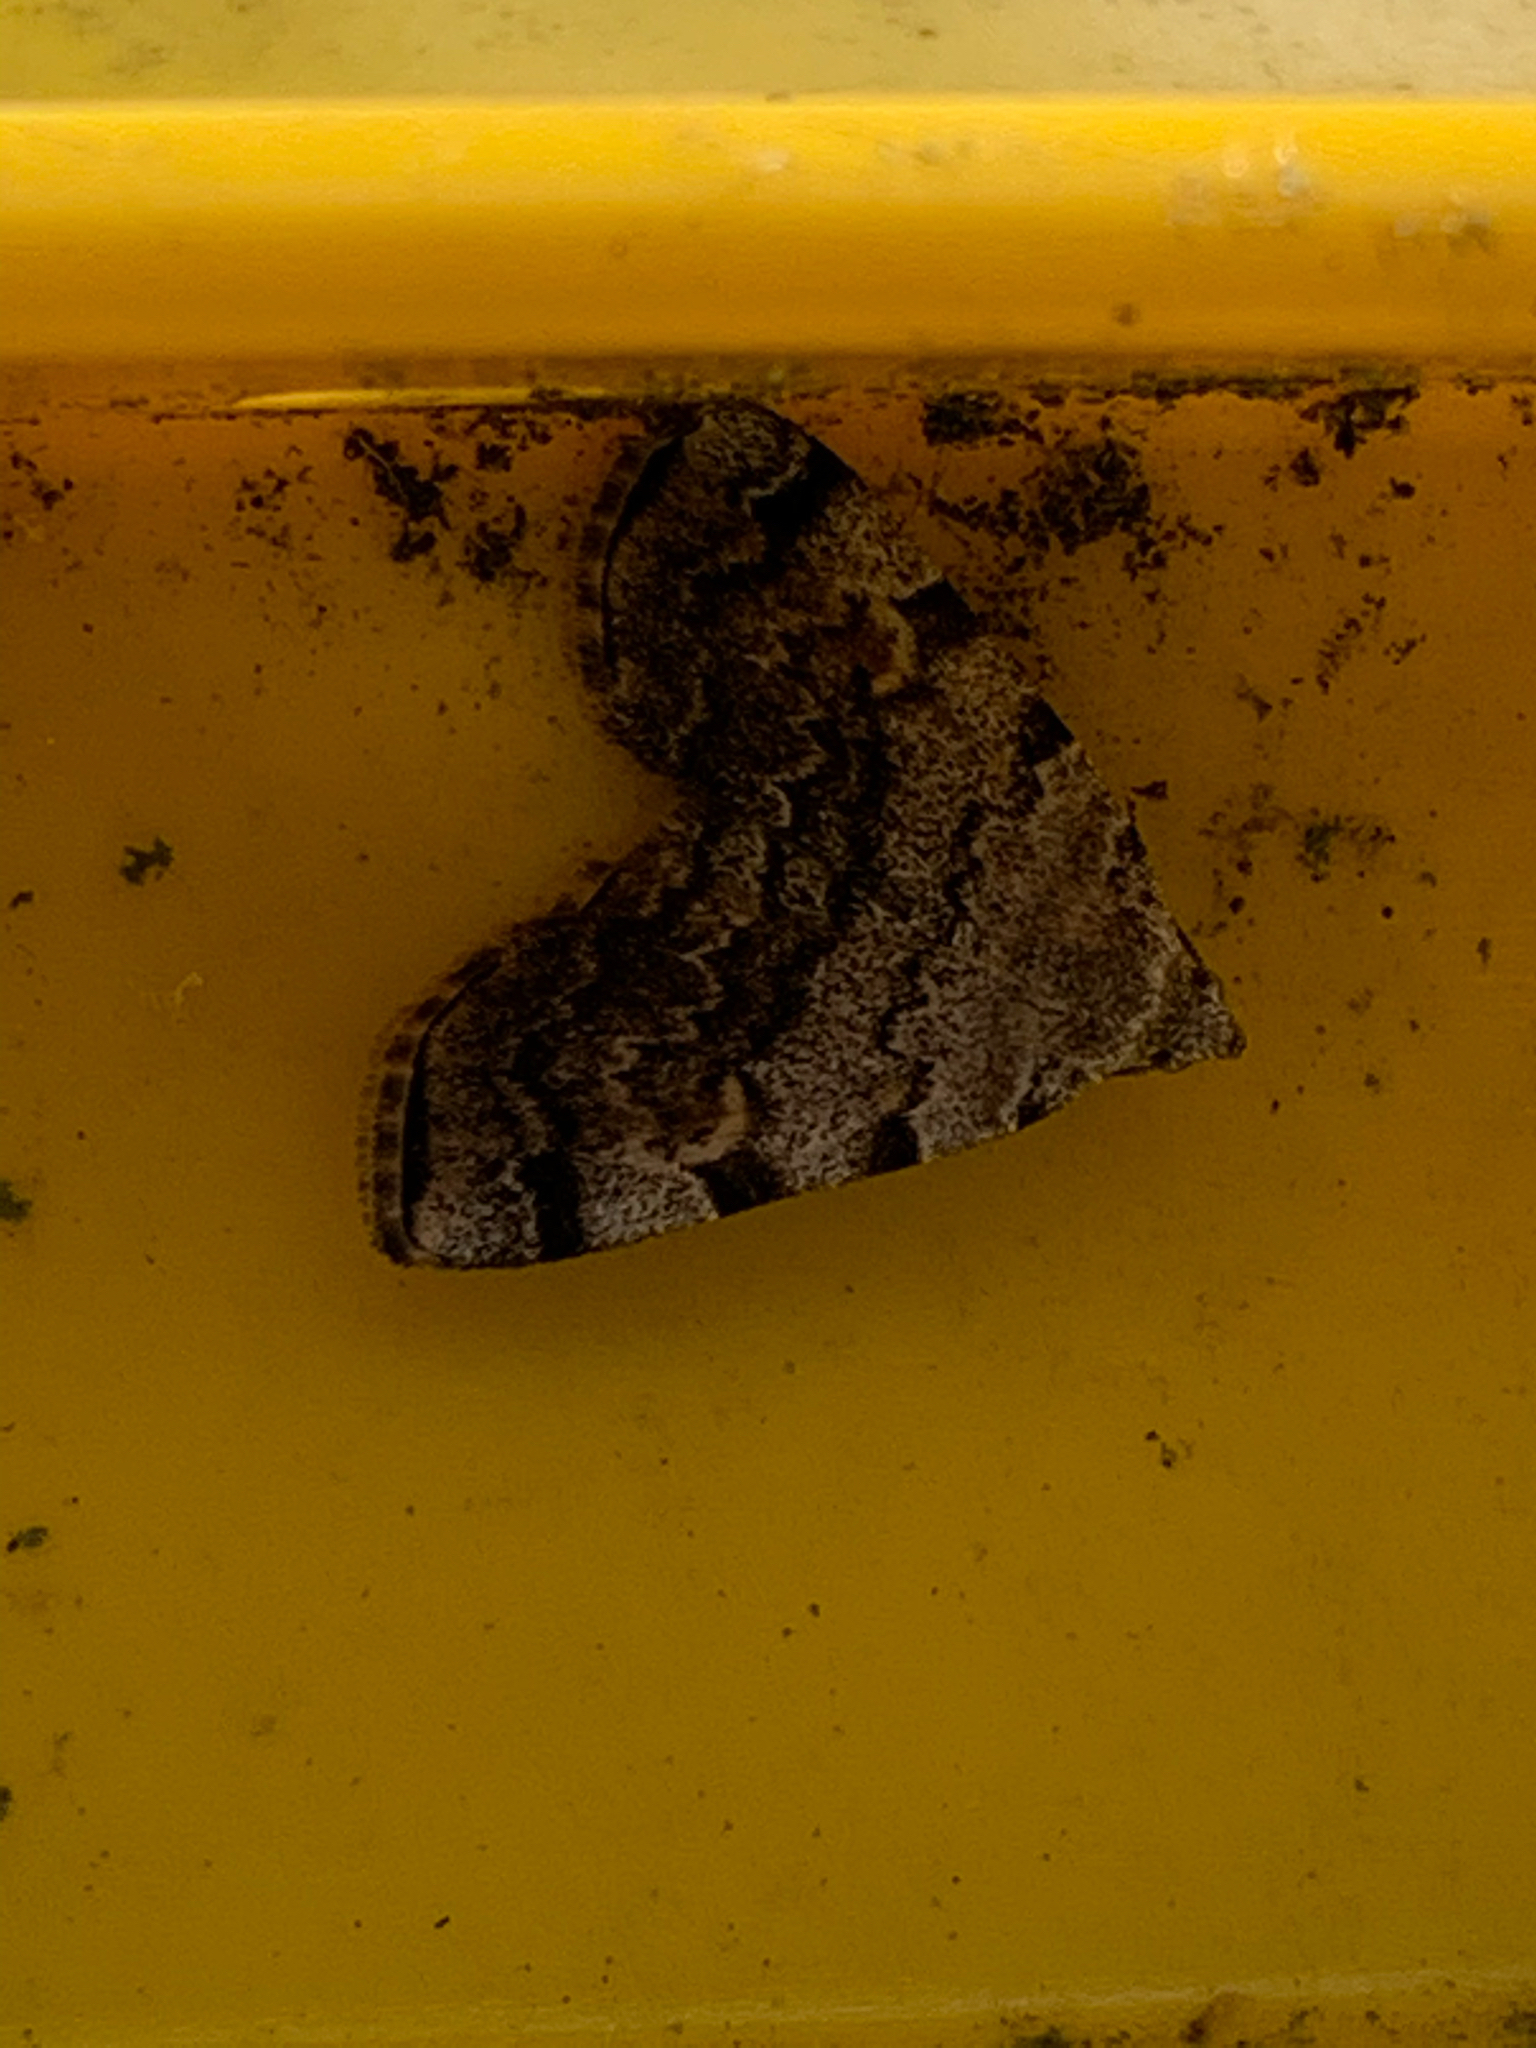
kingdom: Animalia
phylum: Arthropoda
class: Insecta
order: Lepidoptera
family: Erebidae
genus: Idia
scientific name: Idia americalis
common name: American idia moth
